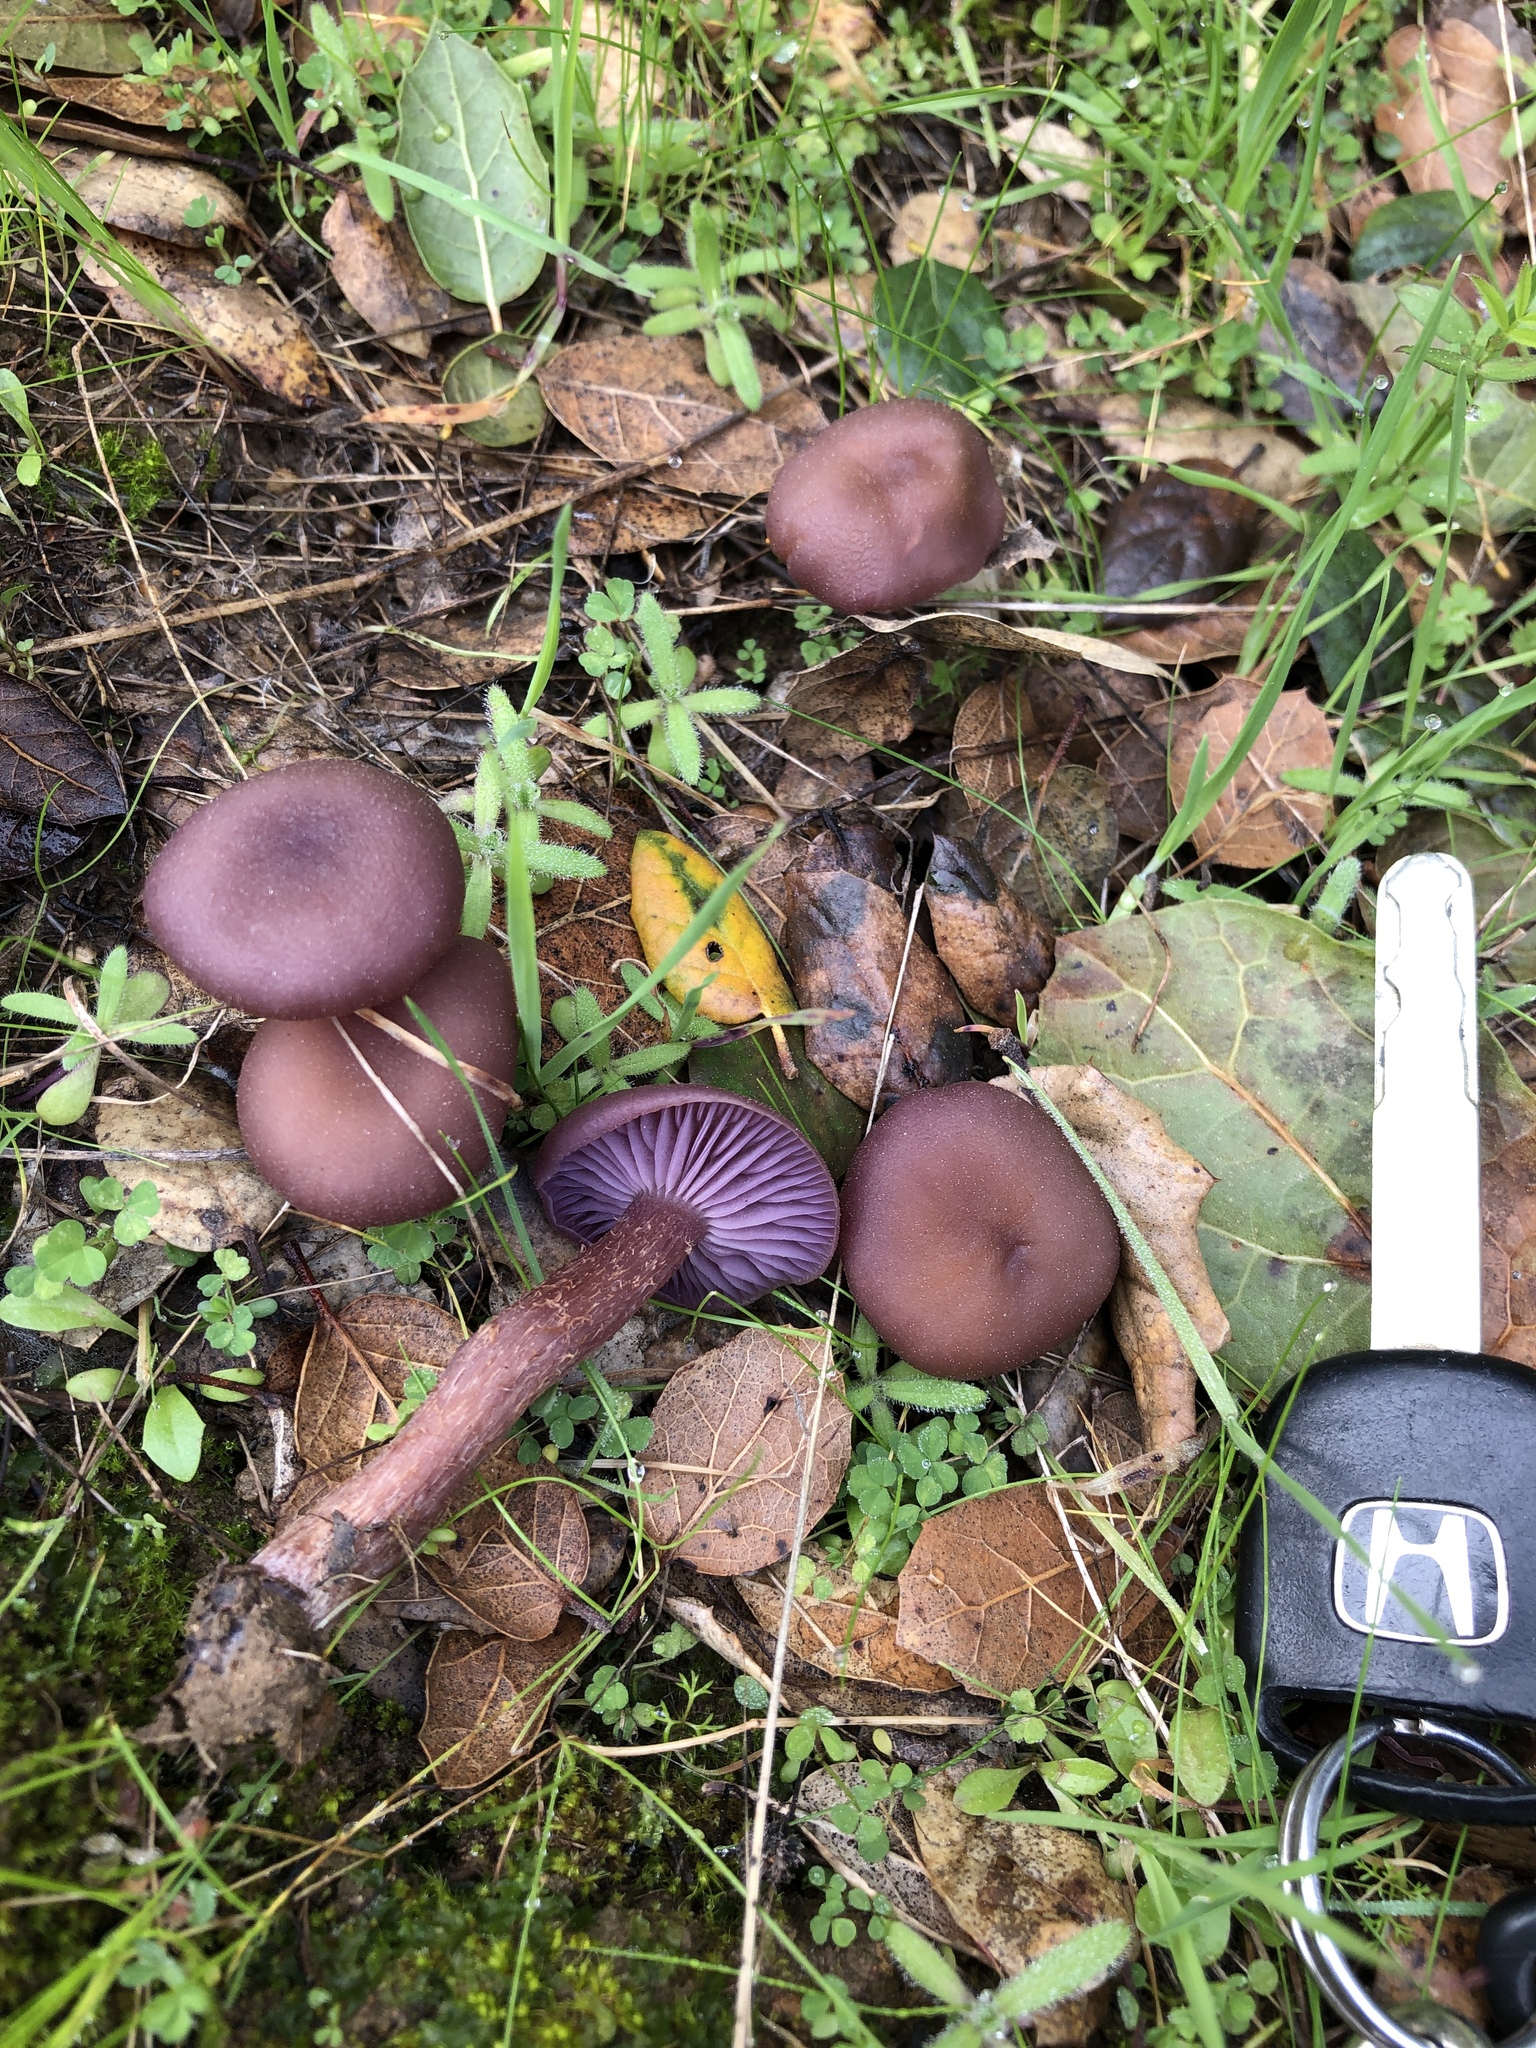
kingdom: Fungi
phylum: Basidiomycota
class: Agaricomycetes
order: Agaricales
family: Hydnangiaceae
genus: Laccaria
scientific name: Laccaria amethysteo-occidentalis
